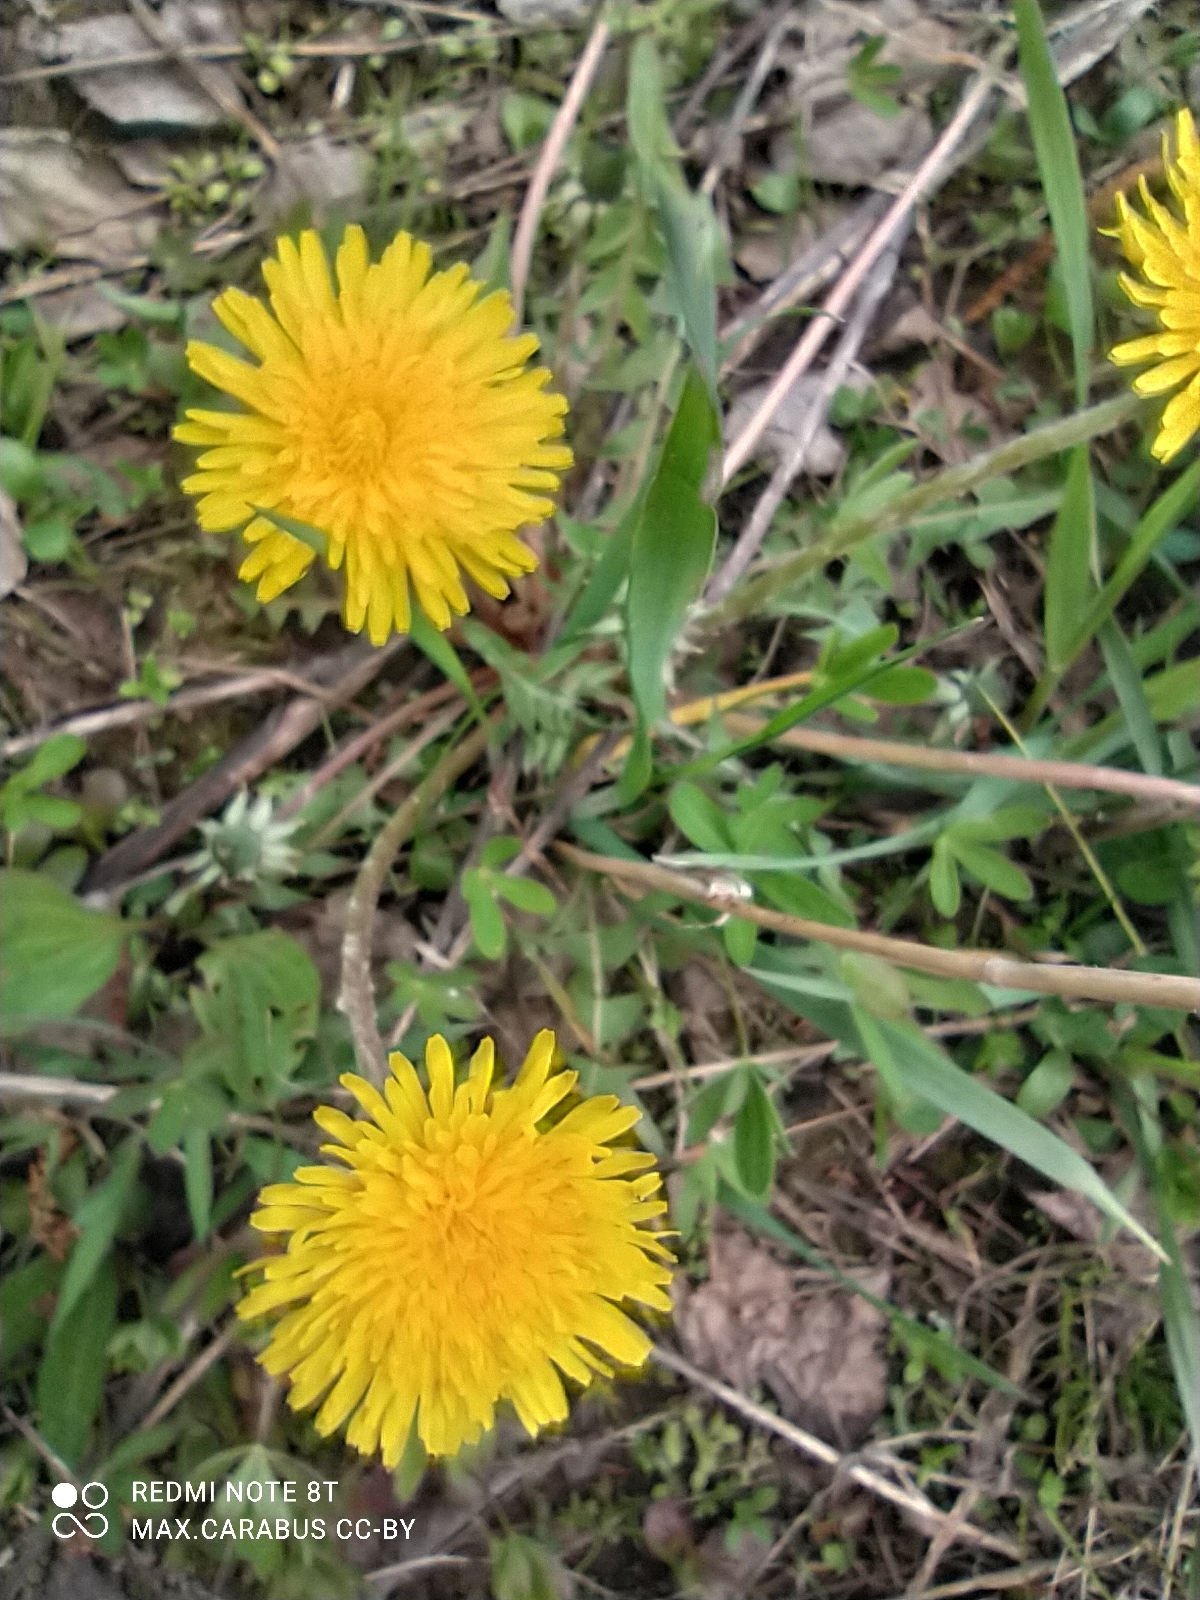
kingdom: Plantae
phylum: Tracheophyta
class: Magnoliopsida
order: Asterales
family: Asteraceae
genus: Taraxacum
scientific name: Taraxacum officinale
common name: Common dandelion
